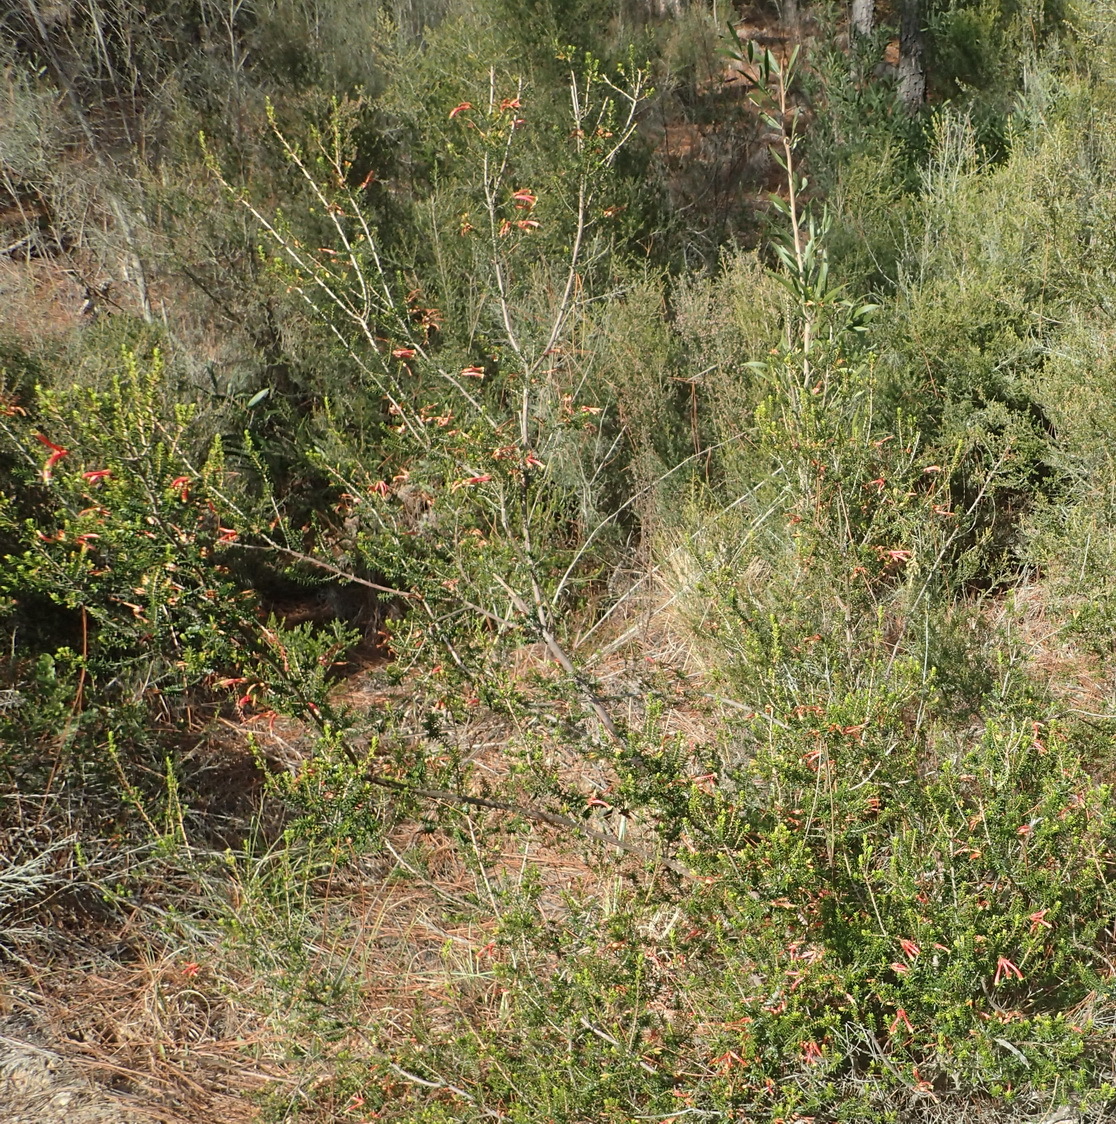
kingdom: Plantae
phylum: Tracheophyta
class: Magnoliopsida
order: Ericales
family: Ericaceae
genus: Erica
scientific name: Erica discolor
